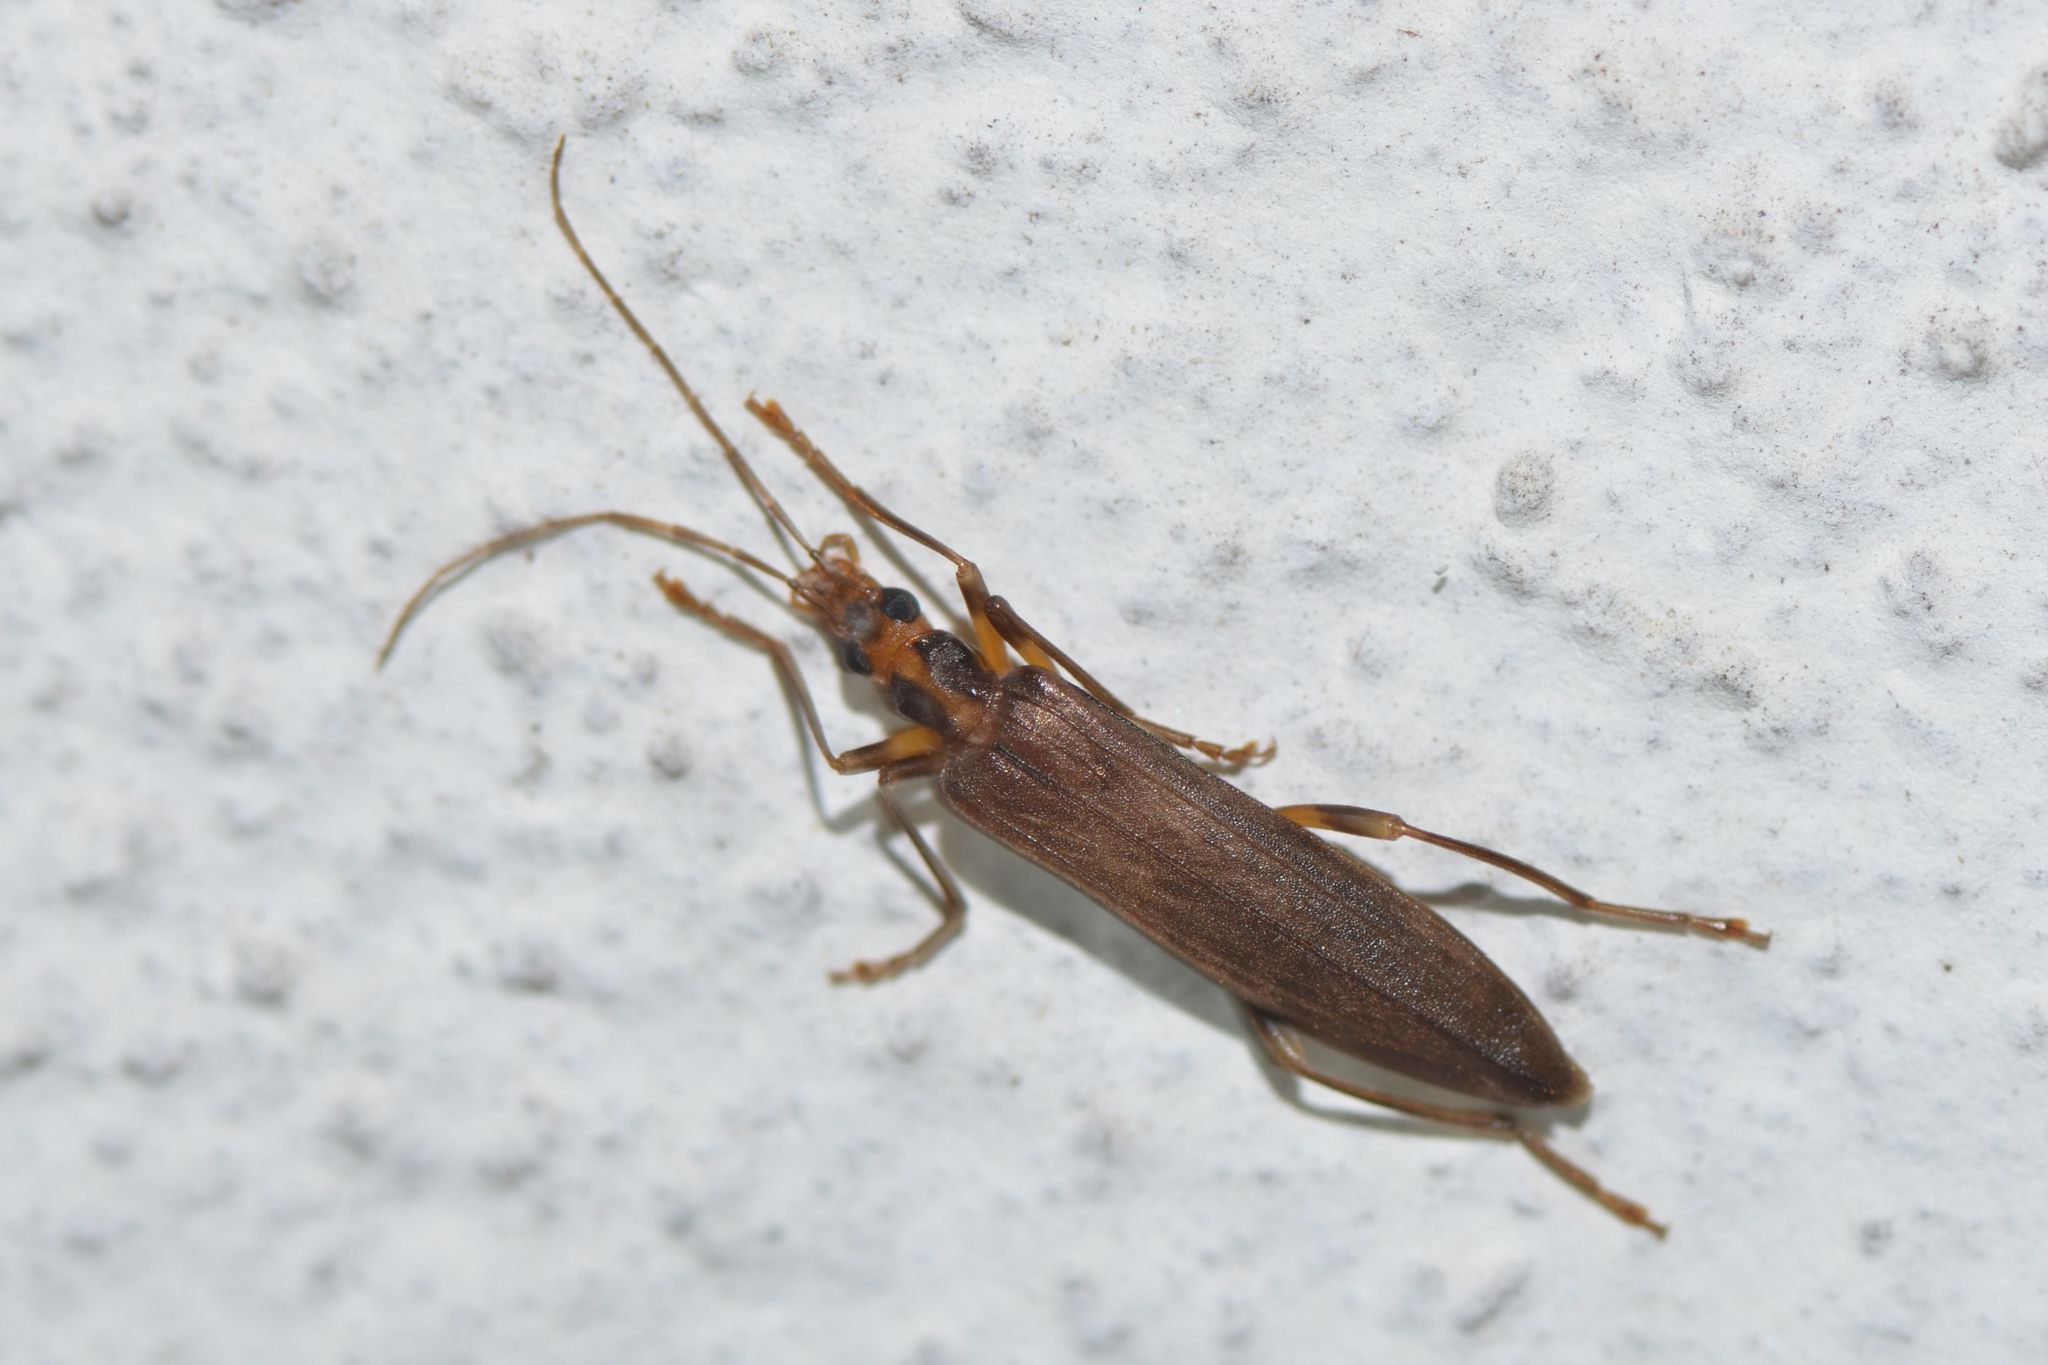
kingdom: Animalia
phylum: Arthropoda
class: Insecta
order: Coleoptera
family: Oedemeridae
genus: Oedemera
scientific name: Oedemera femoralis
